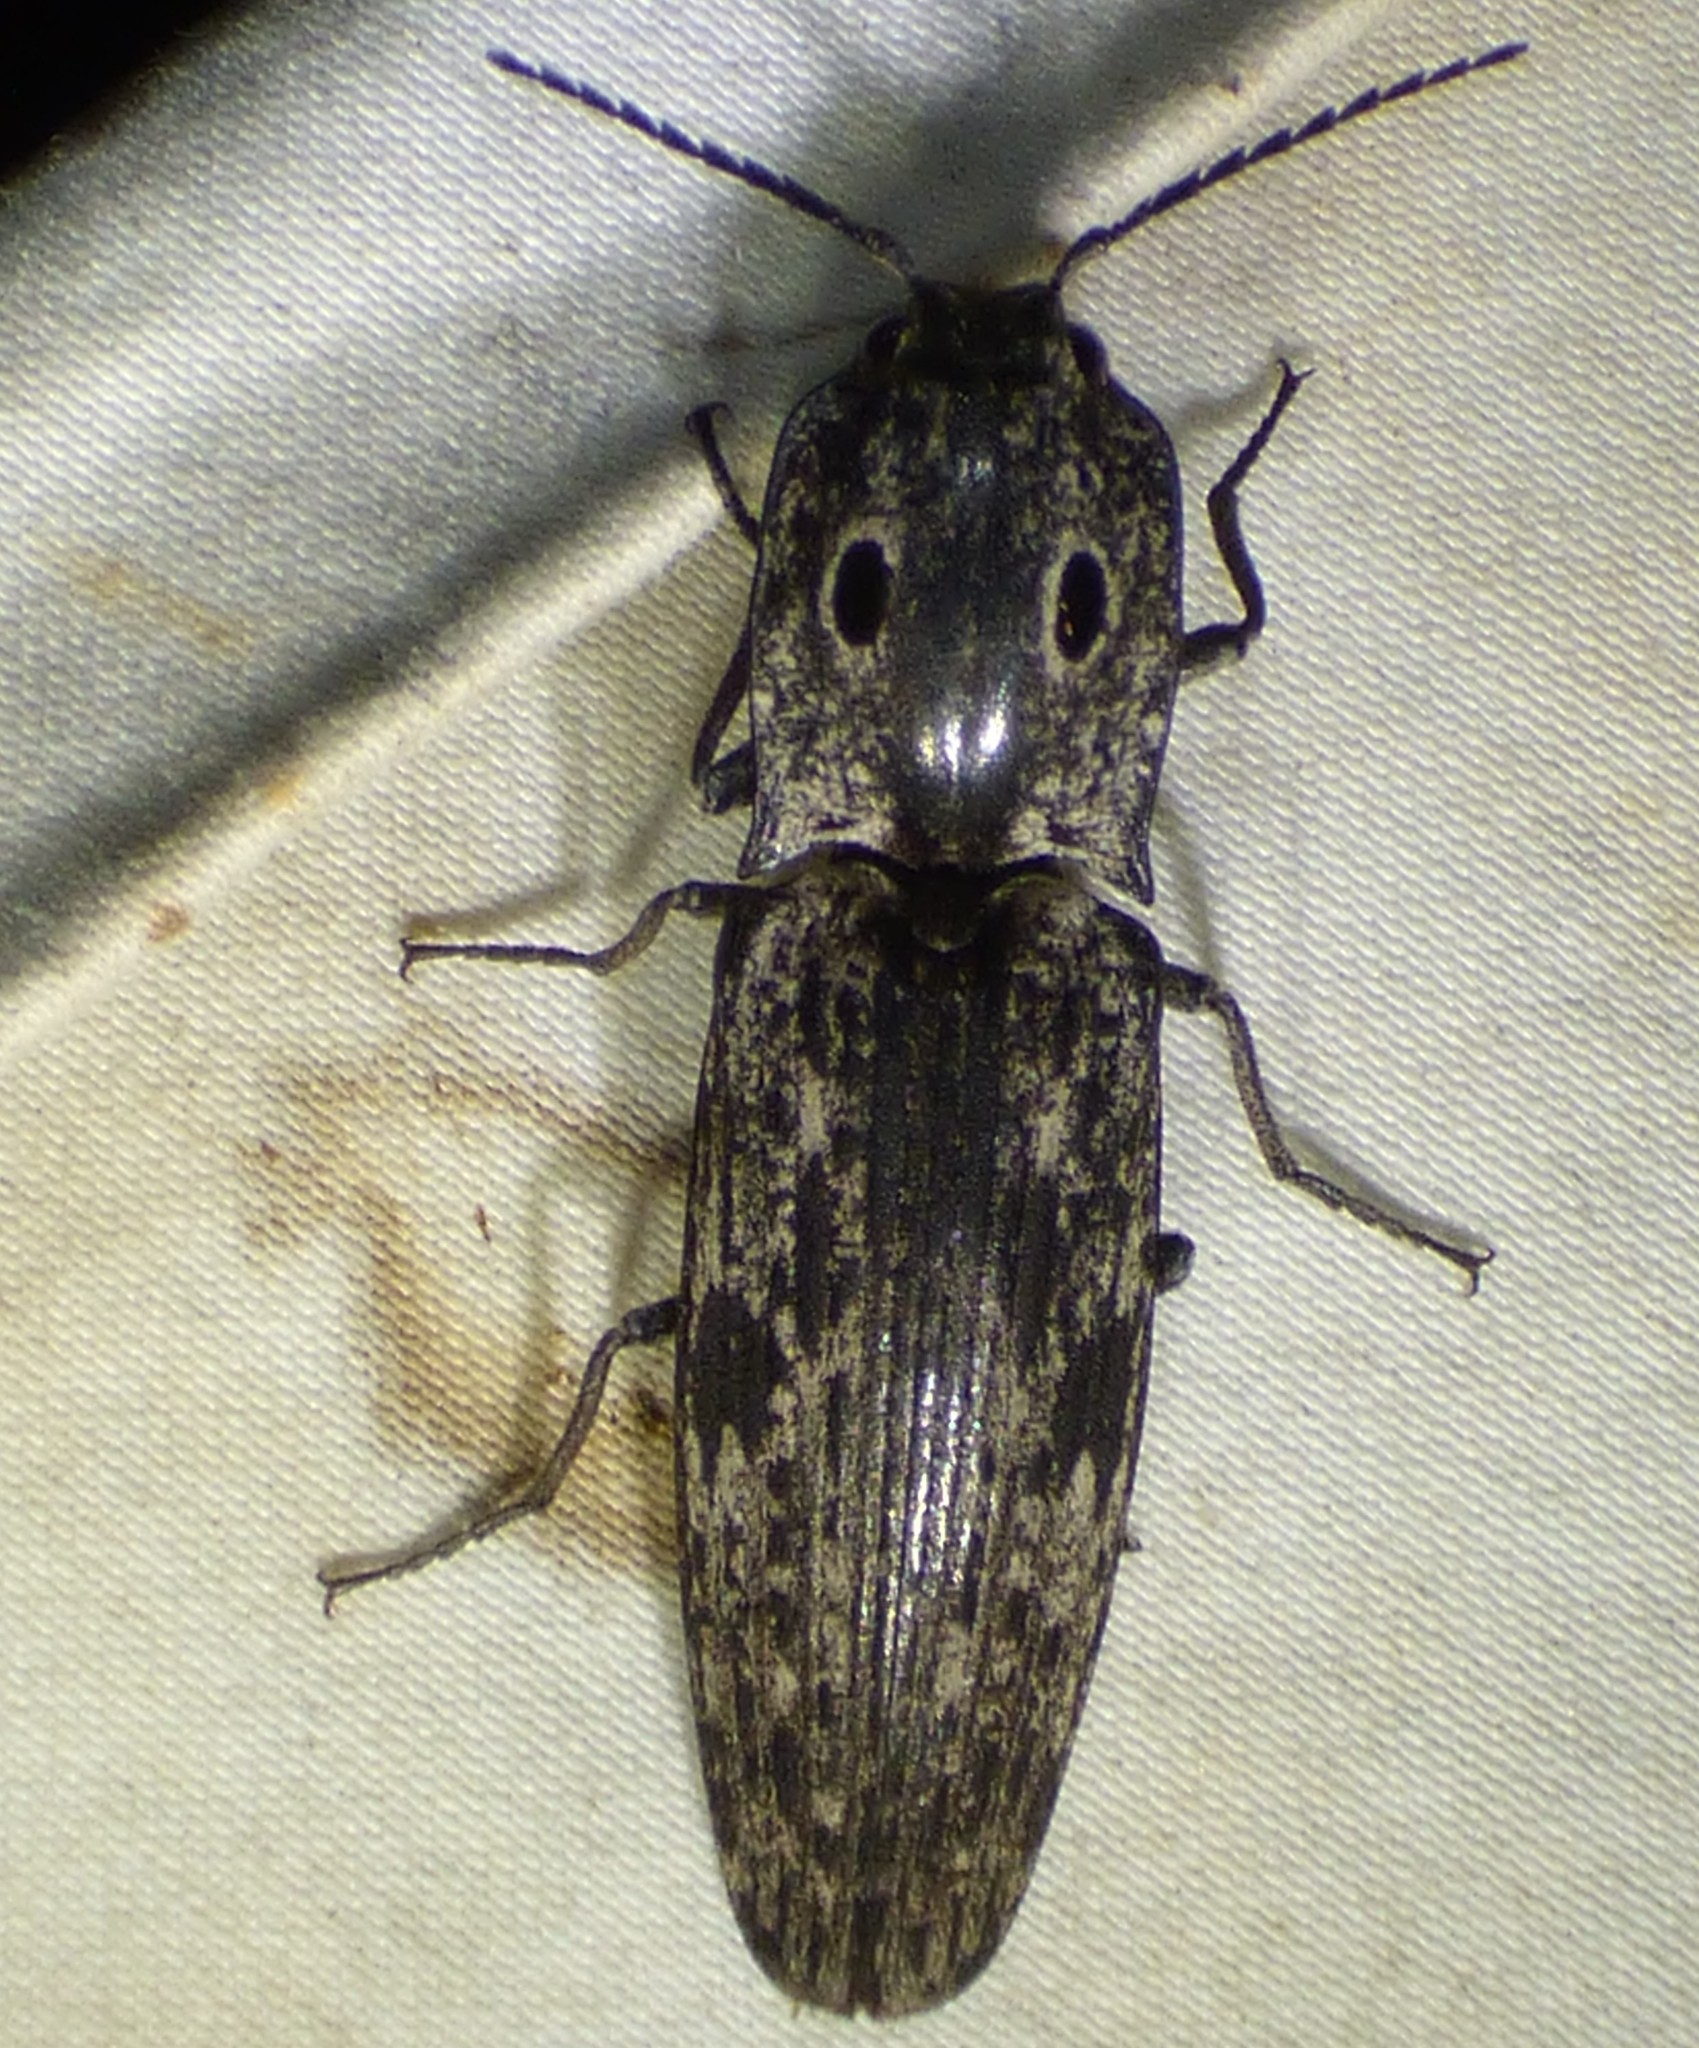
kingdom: Animalia
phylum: Arthropoda
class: Insecta
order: Coleoptera
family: Elateridae
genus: Alaus
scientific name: Alaus myops
